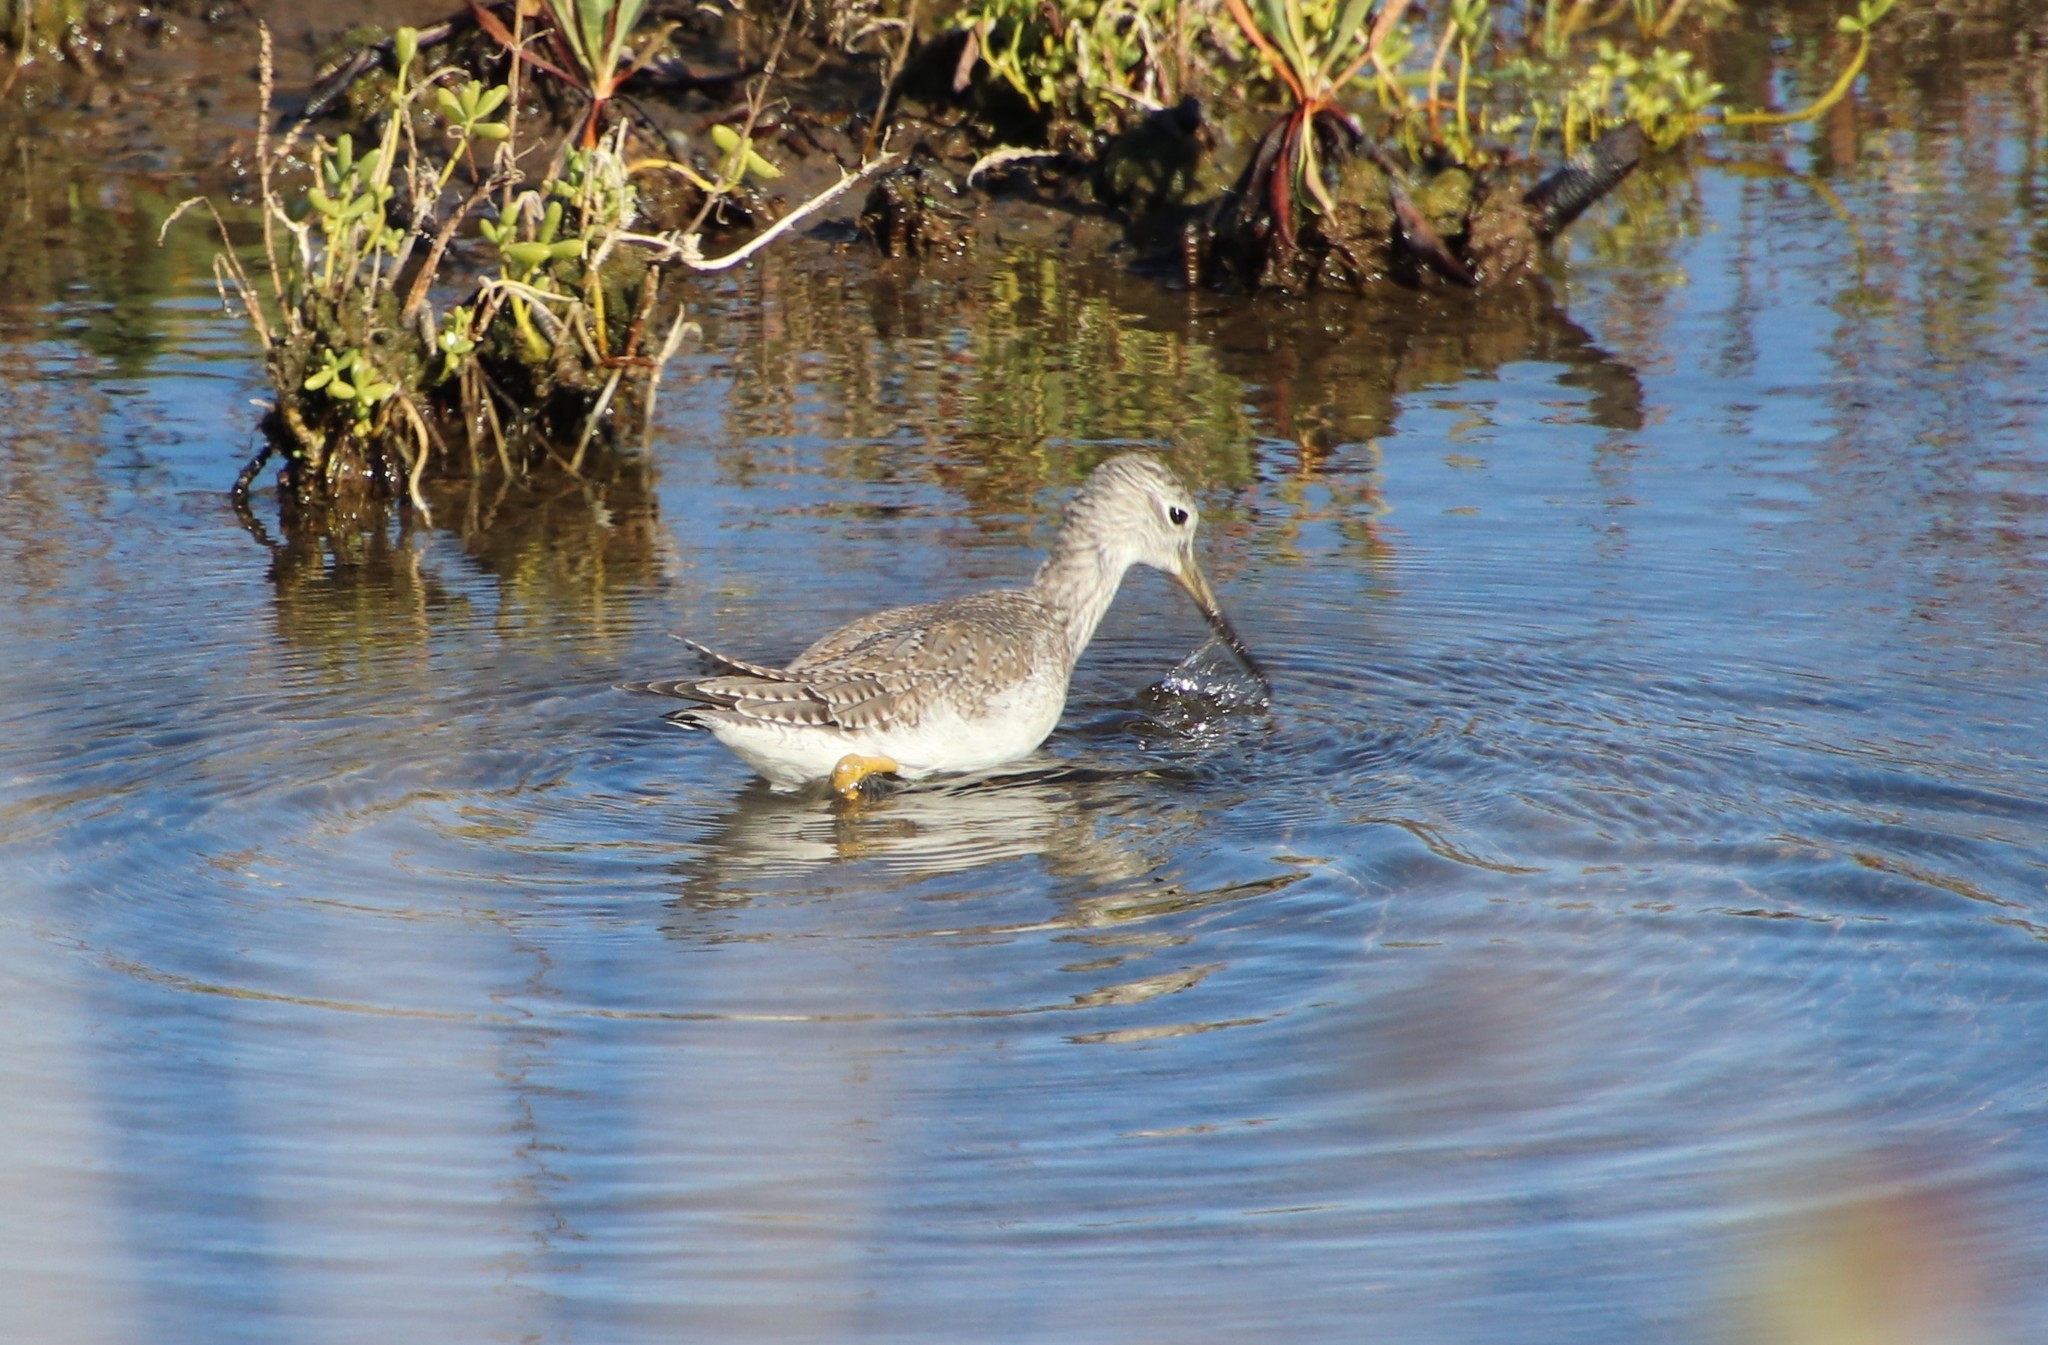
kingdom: Animalia
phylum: Chordata
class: Aves
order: Charadriiformes
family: Scolopacidae
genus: Tringa
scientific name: Tringa melanoleuca
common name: Greater yellowlegs
